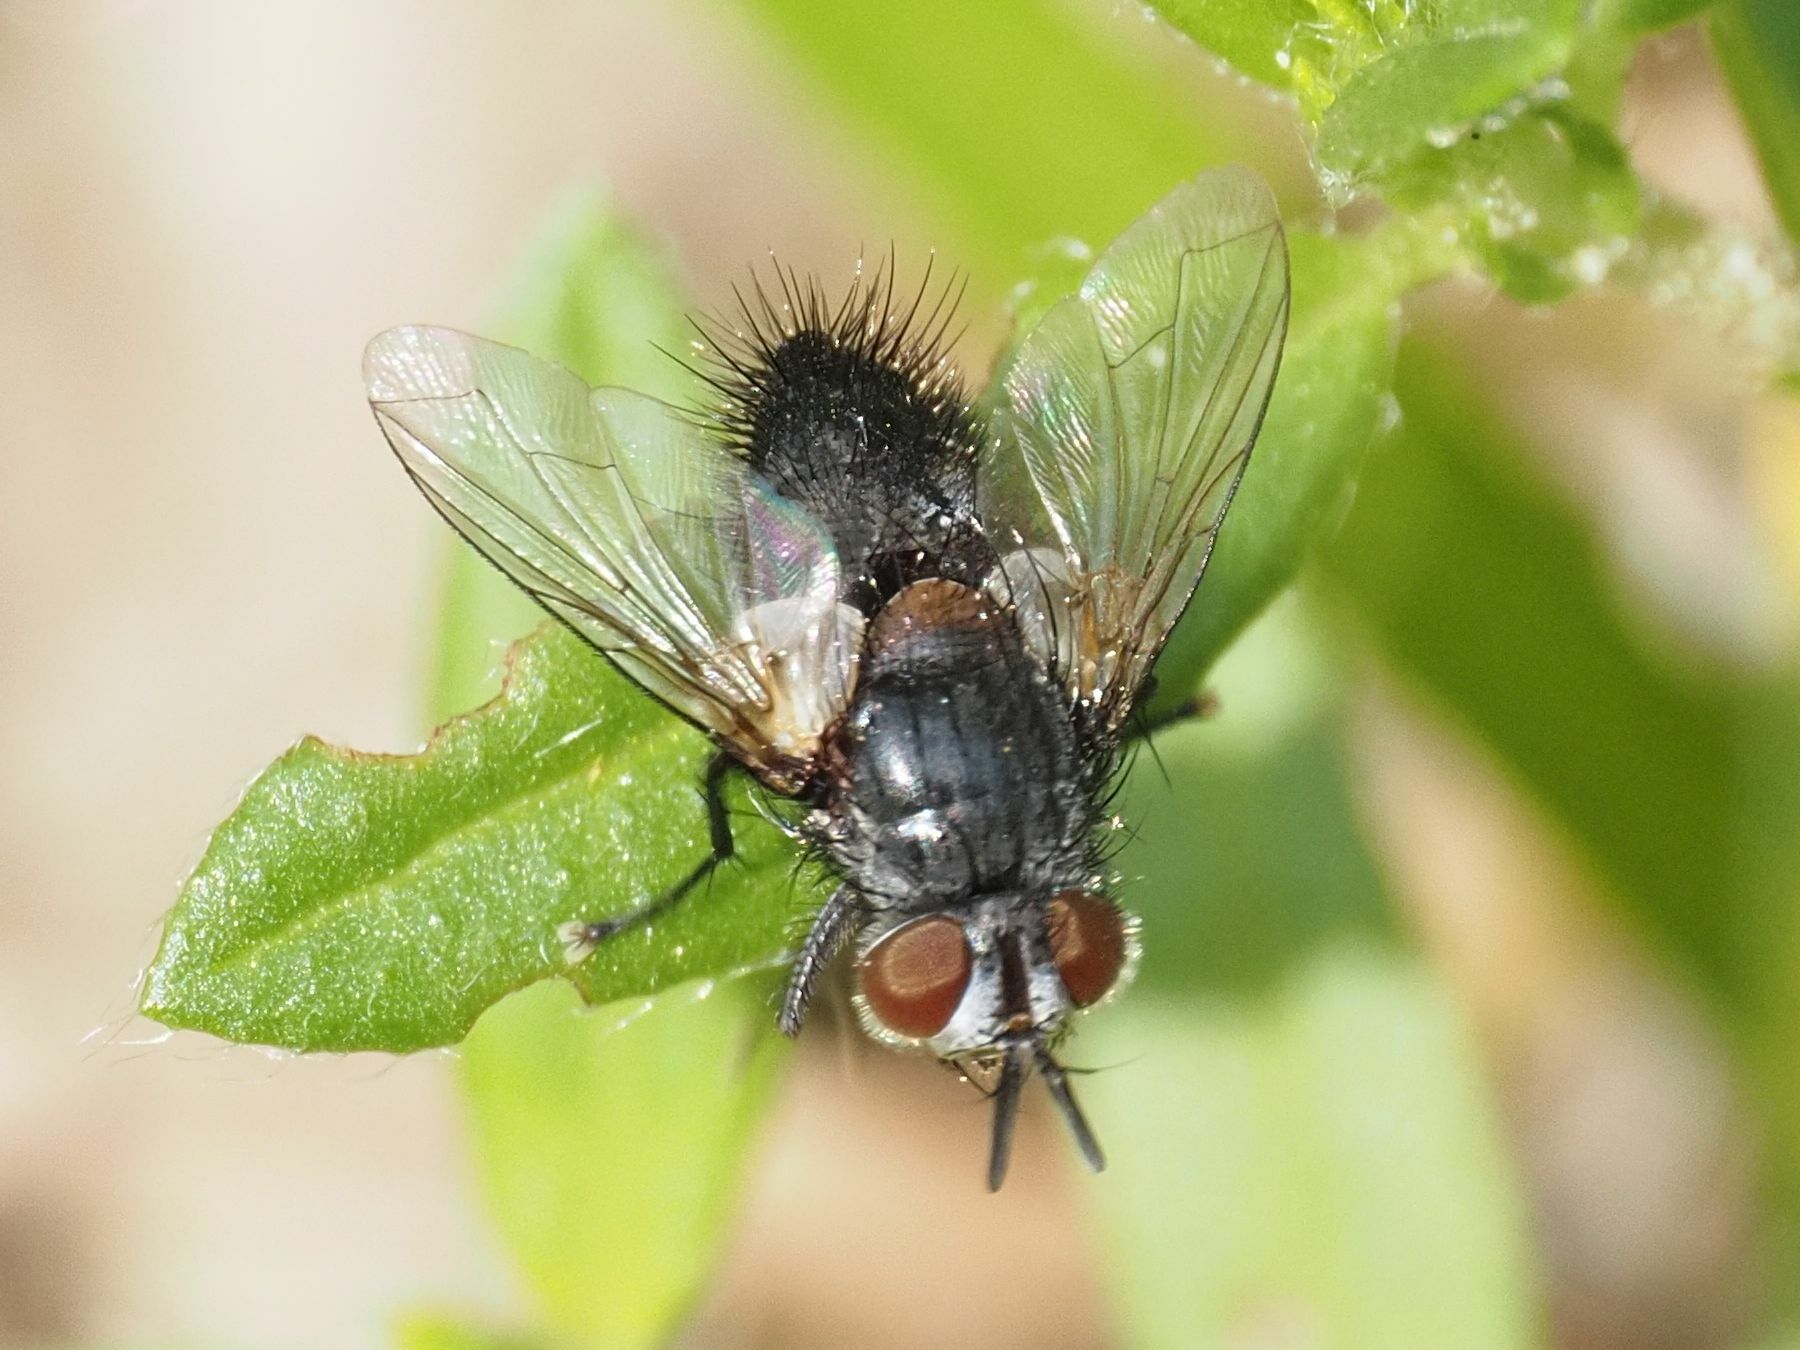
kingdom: Animalia
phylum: Arthropoda
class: Insecta
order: Diptera
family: Tachinidae
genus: Aplomya
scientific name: Aplomya confinis
